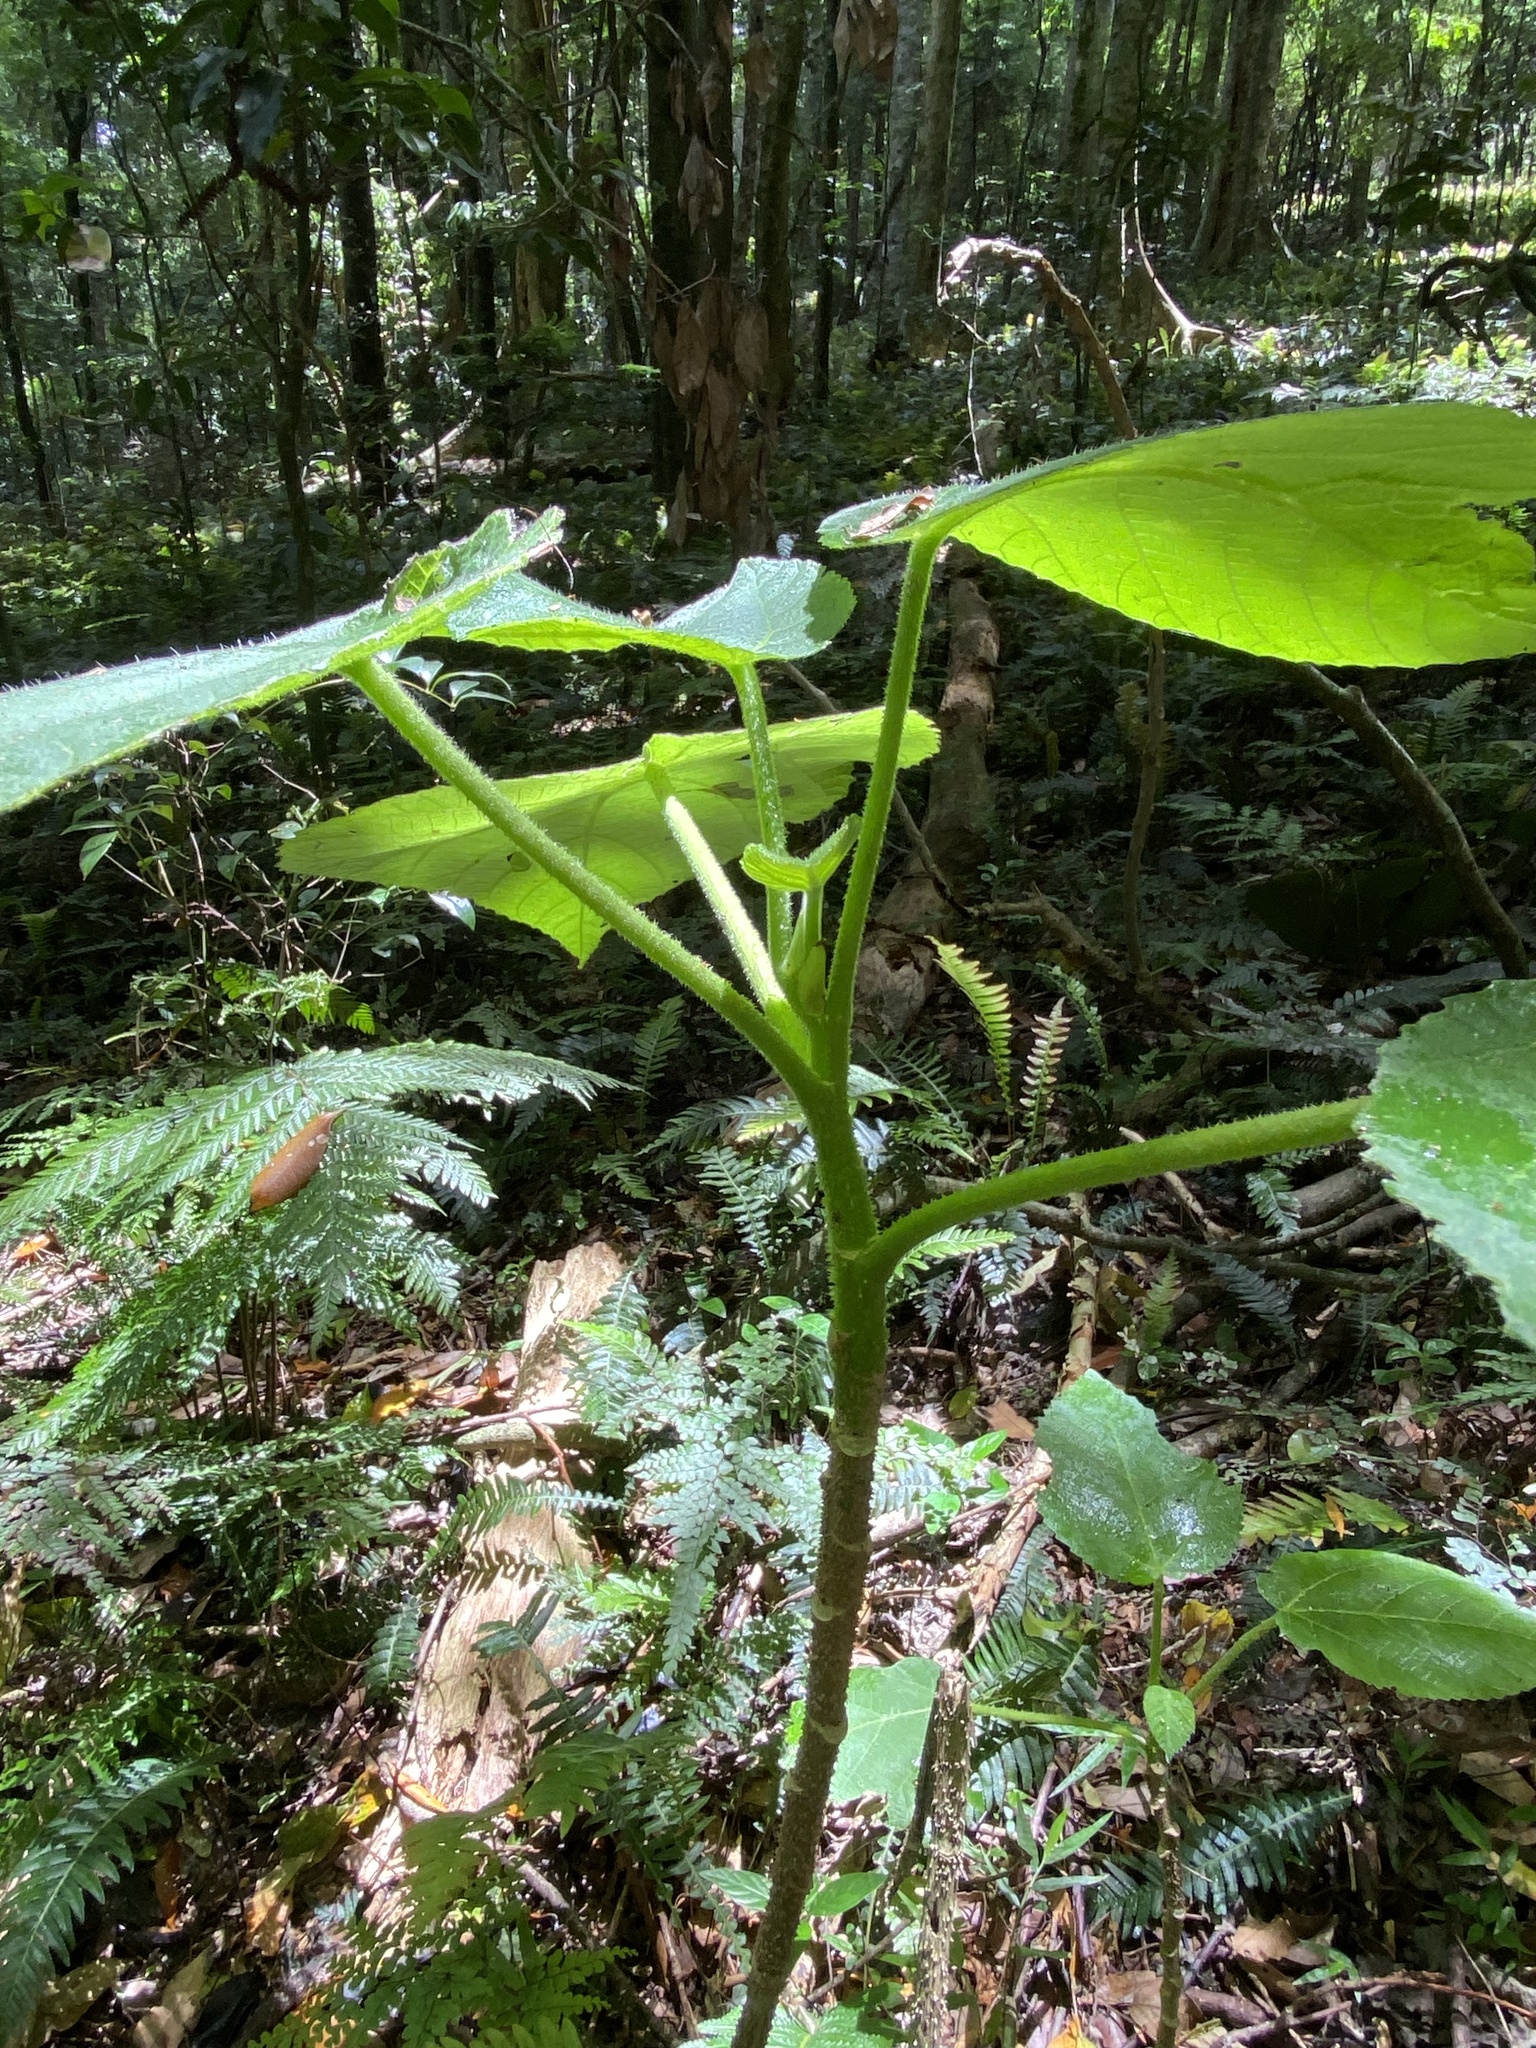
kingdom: Plantae
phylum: Tracheophyta
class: Magnoliopsida
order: Rosales
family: Urticaceae
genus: Dendrocnide
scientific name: Dendrocnide excelsa
